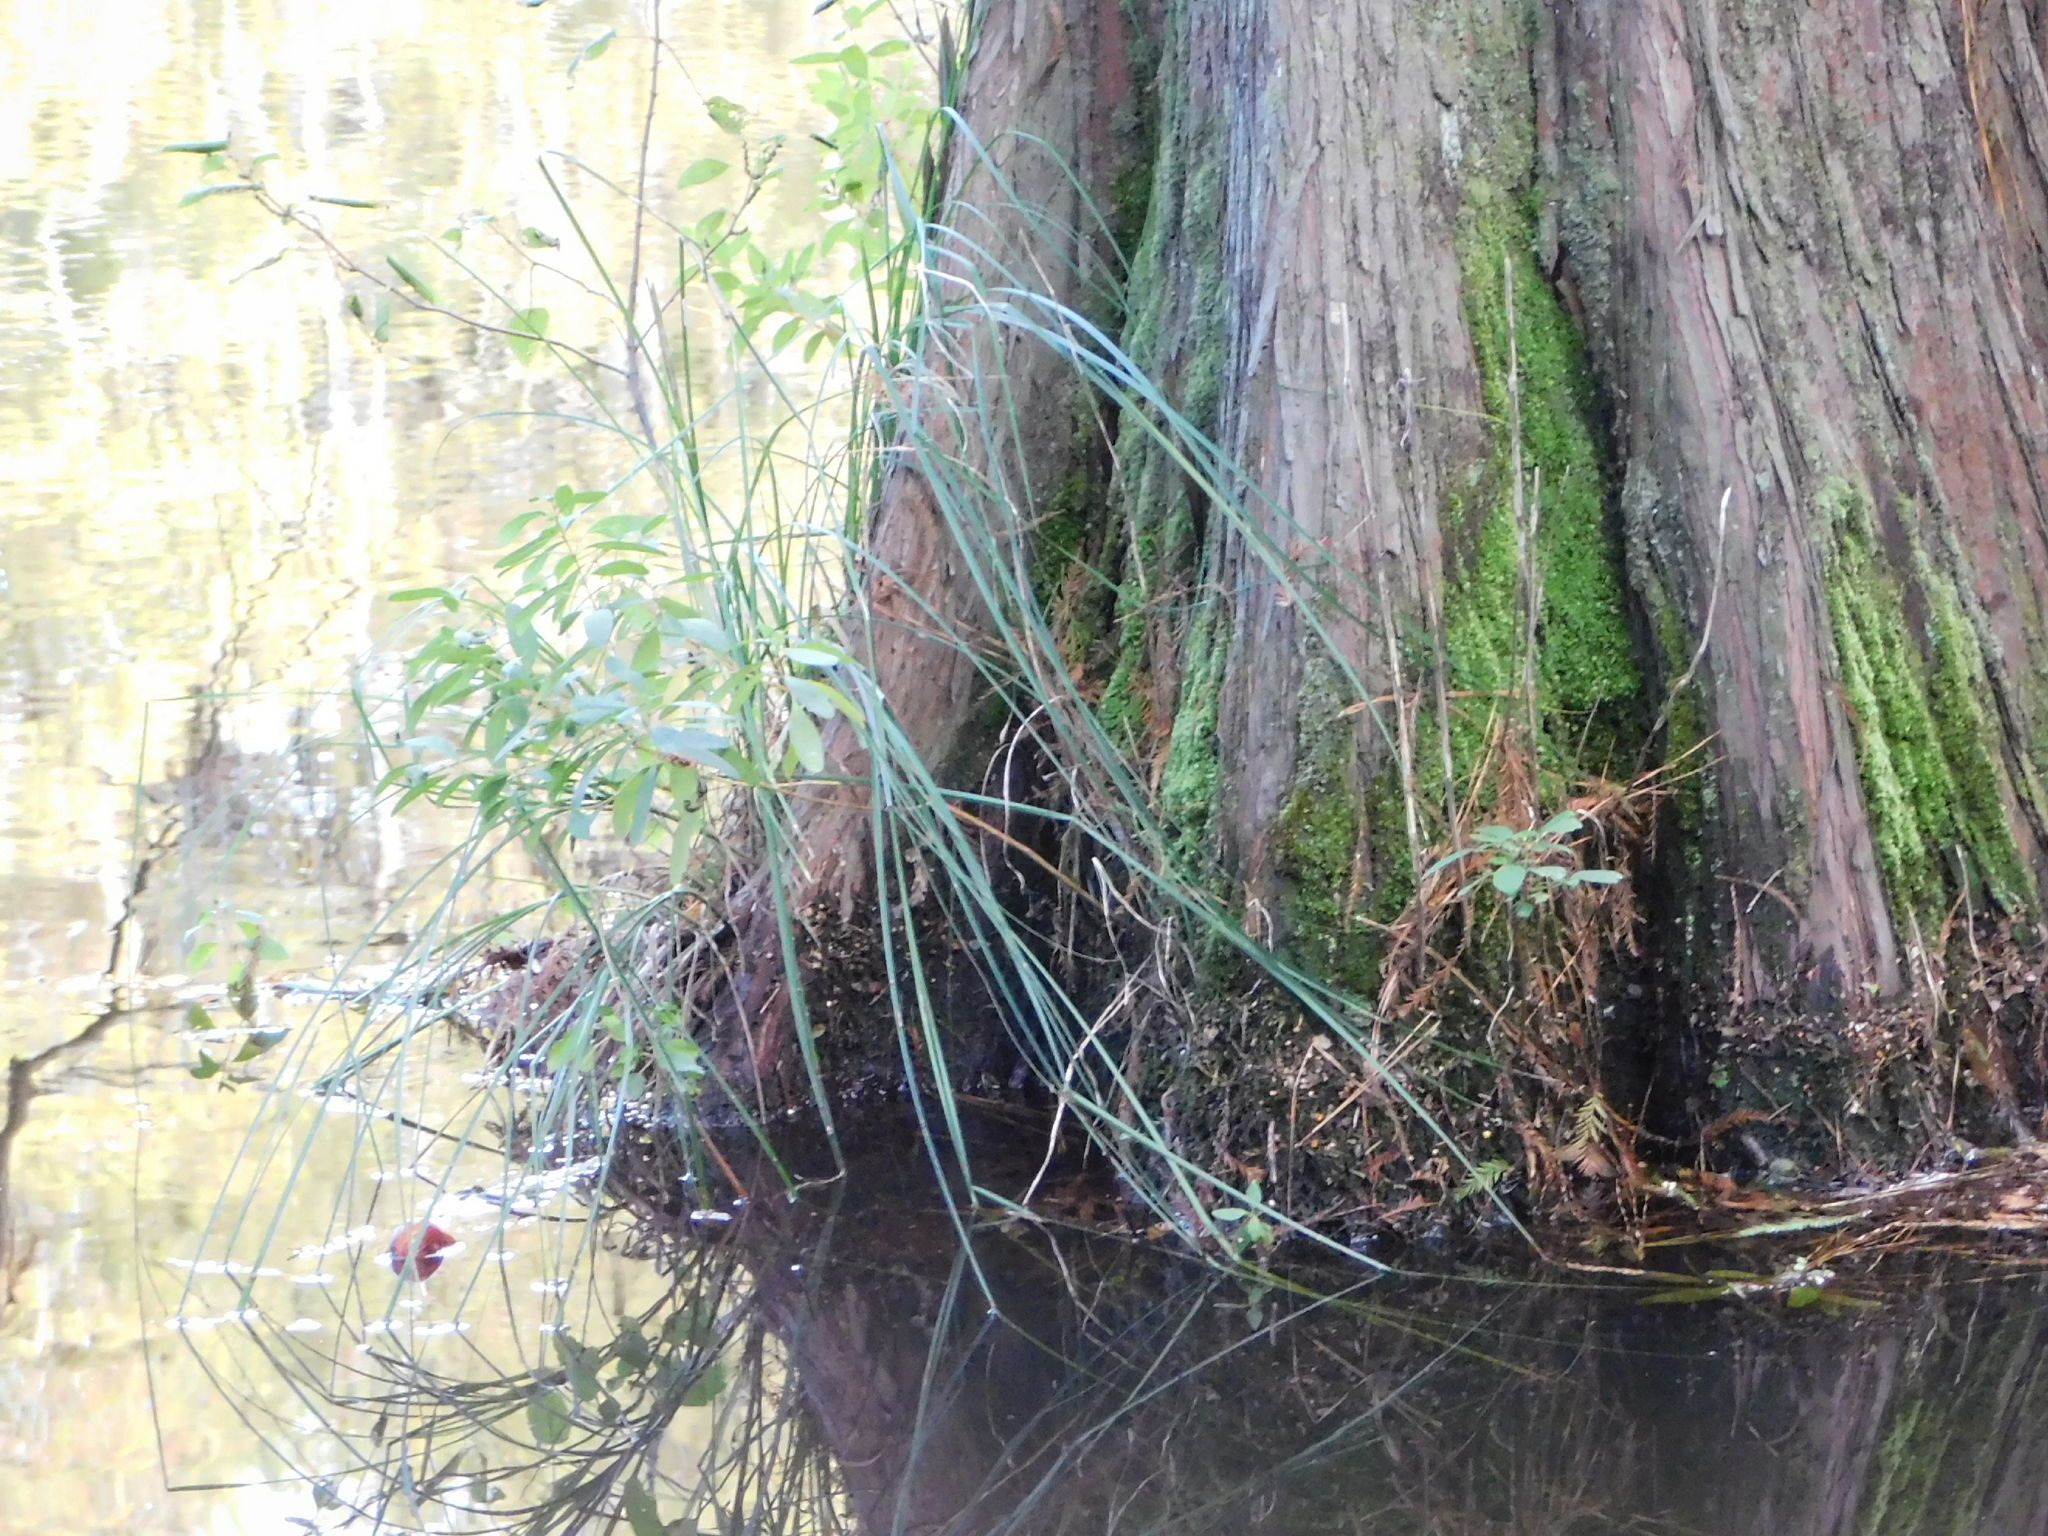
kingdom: Plantae
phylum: Tracheophyta
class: Liliopsida
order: Poales
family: Cyperaceae
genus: Carex
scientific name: Carex decomposita
